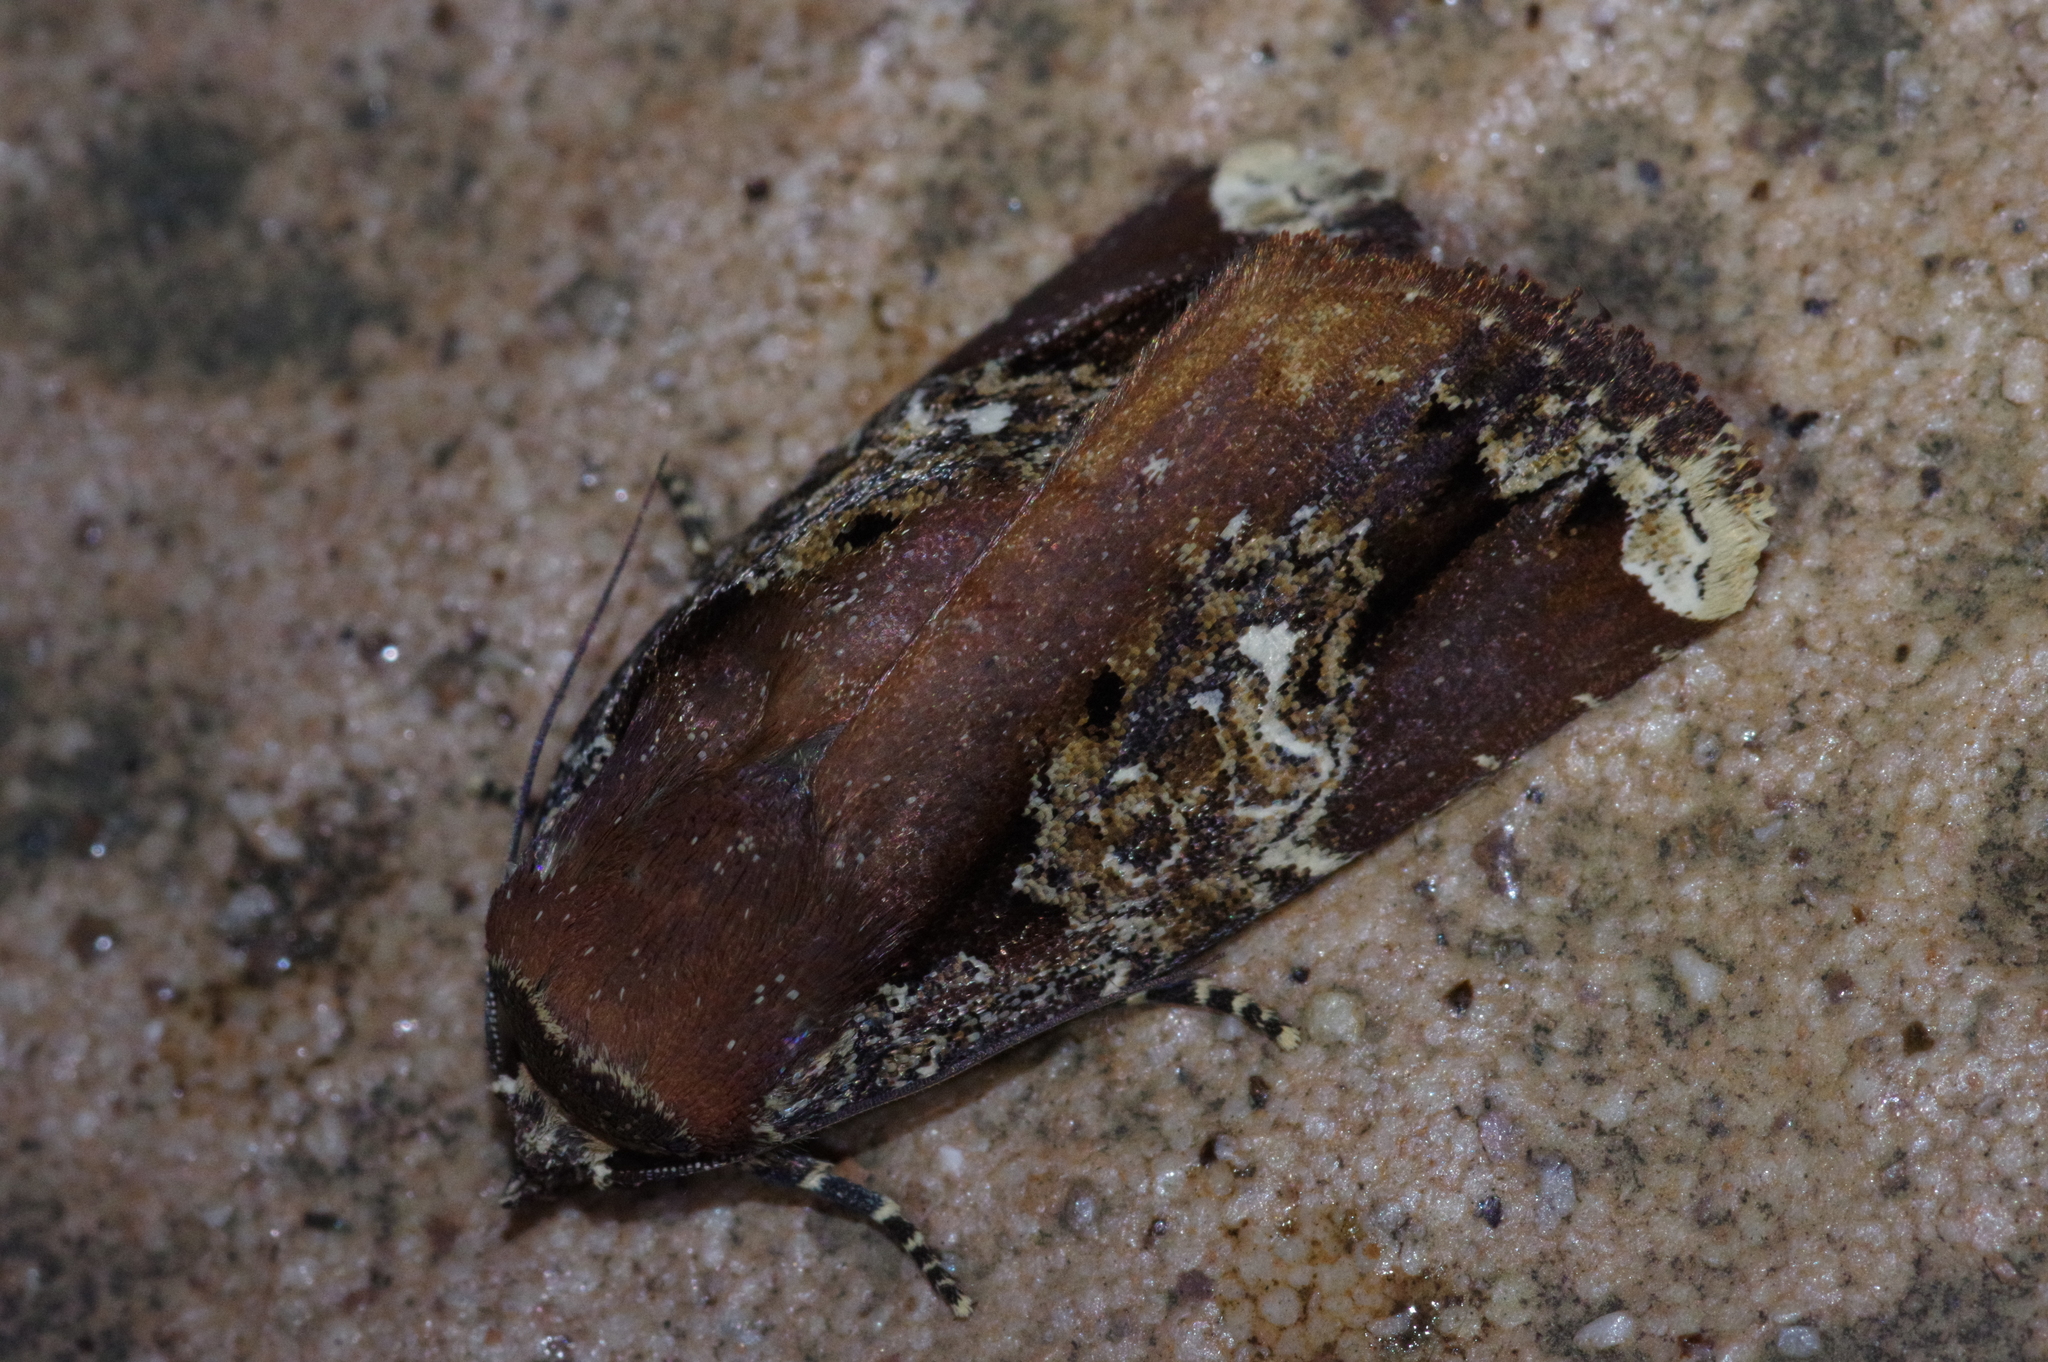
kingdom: Animalia
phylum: Arthropoda
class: Insecta
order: Lepidoptera
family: Noctuidae
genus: Callyna
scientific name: Callyna contracta
